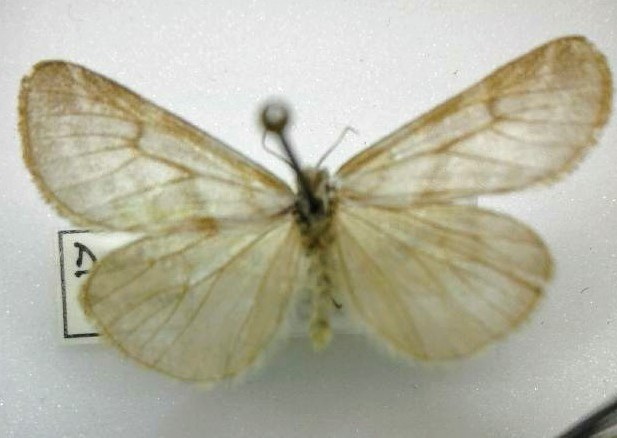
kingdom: Animalia
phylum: Arthropoda
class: Insecta
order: Lepidoptera
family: Erebidae
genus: Dodia
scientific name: Dodia tarandus
